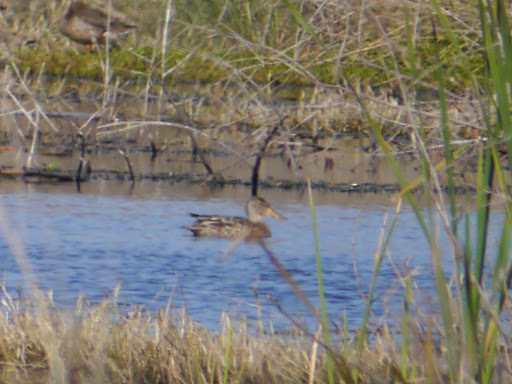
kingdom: Animalia
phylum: Chordata
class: Aves
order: Anseriformes
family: Anatidae
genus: Spatula
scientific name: Spatula clypeata
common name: Northern shoveler
